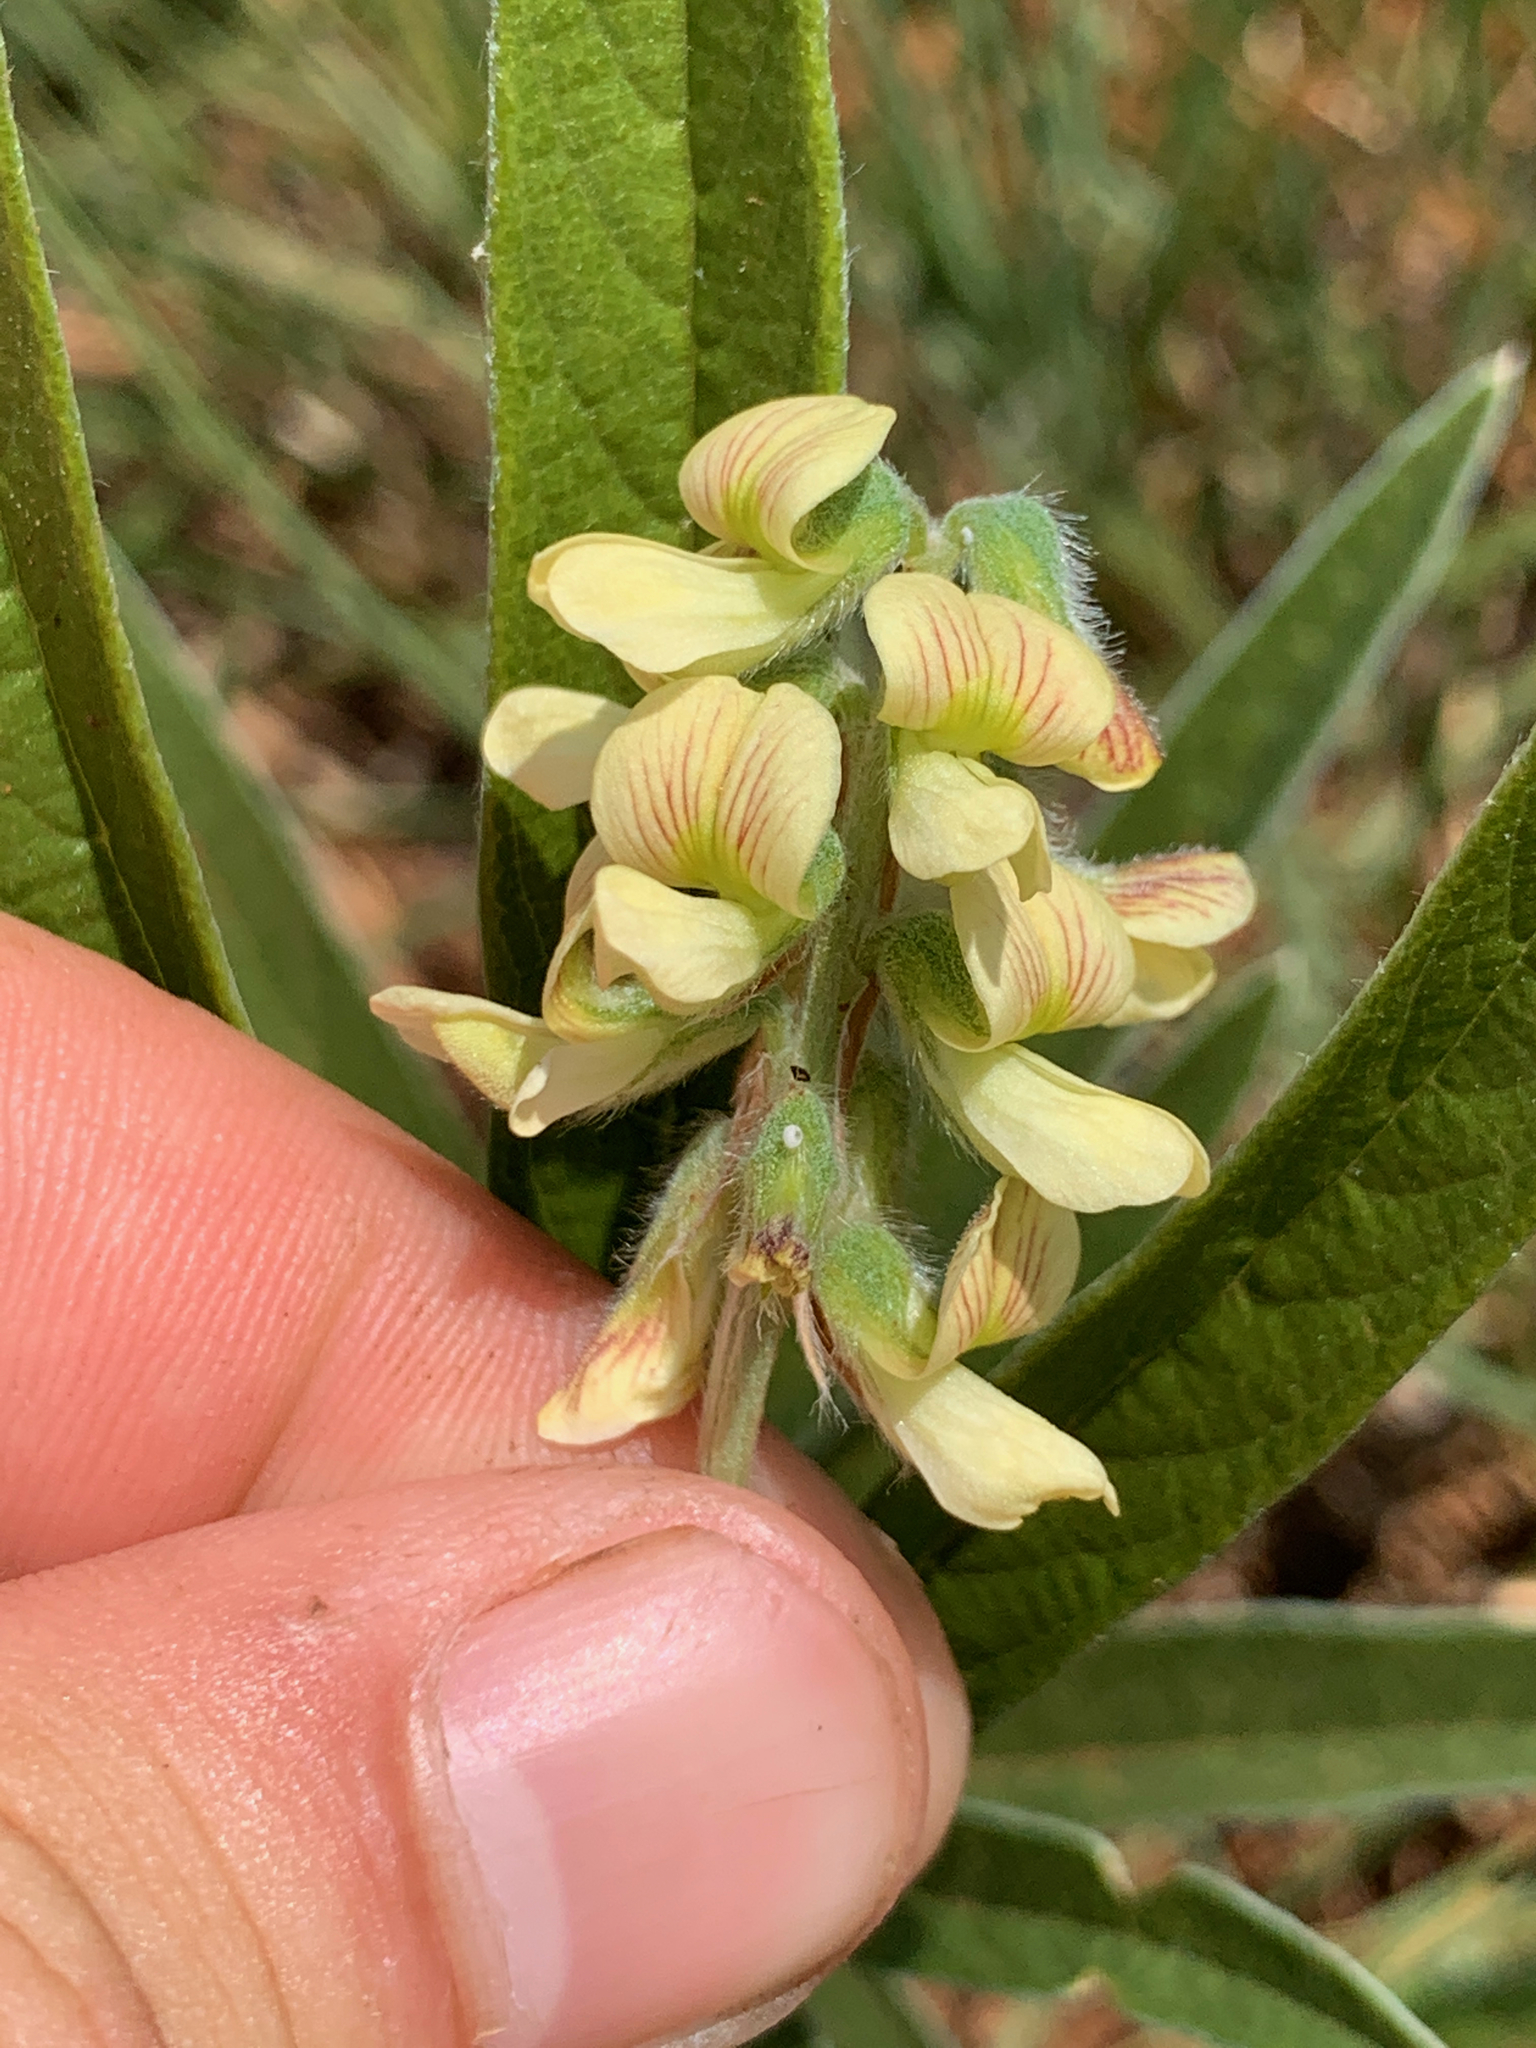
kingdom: Plantae
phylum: Tracheophyta
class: Magnoliopsida
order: Fabales
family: Fabaceae
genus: Eriosema
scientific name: Eriosema salignum
